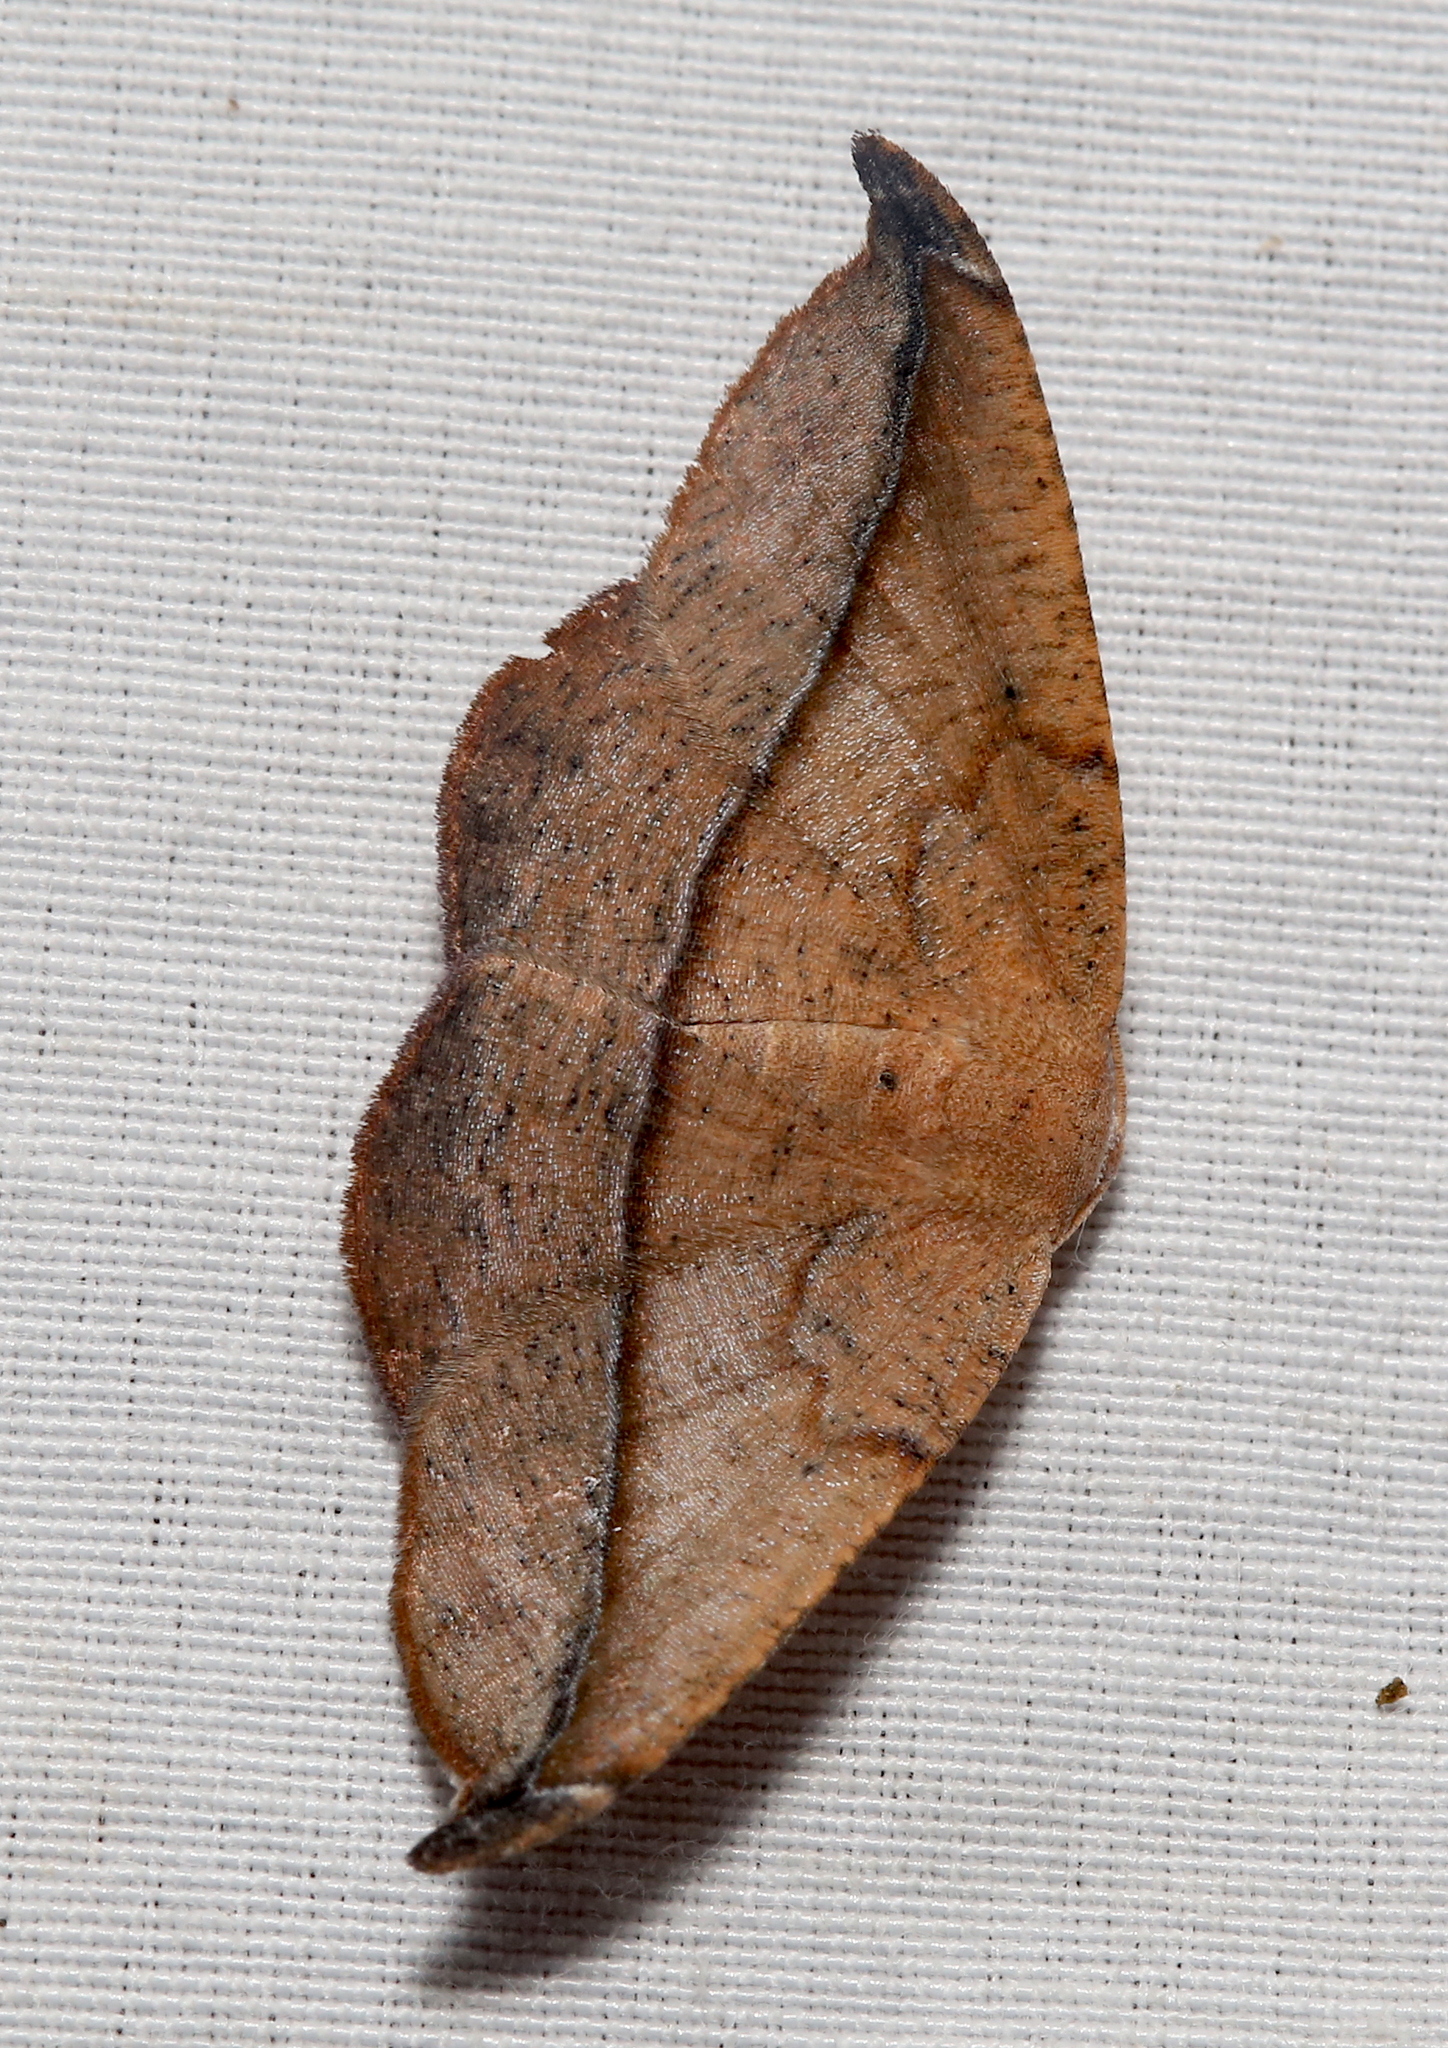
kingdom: Animalia
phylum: Arthropoda
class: Insecta
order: Lepidoptera
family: Geometridae
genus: Patalene
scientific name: Patalene olyzonaria
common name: Juniper geometer moth
